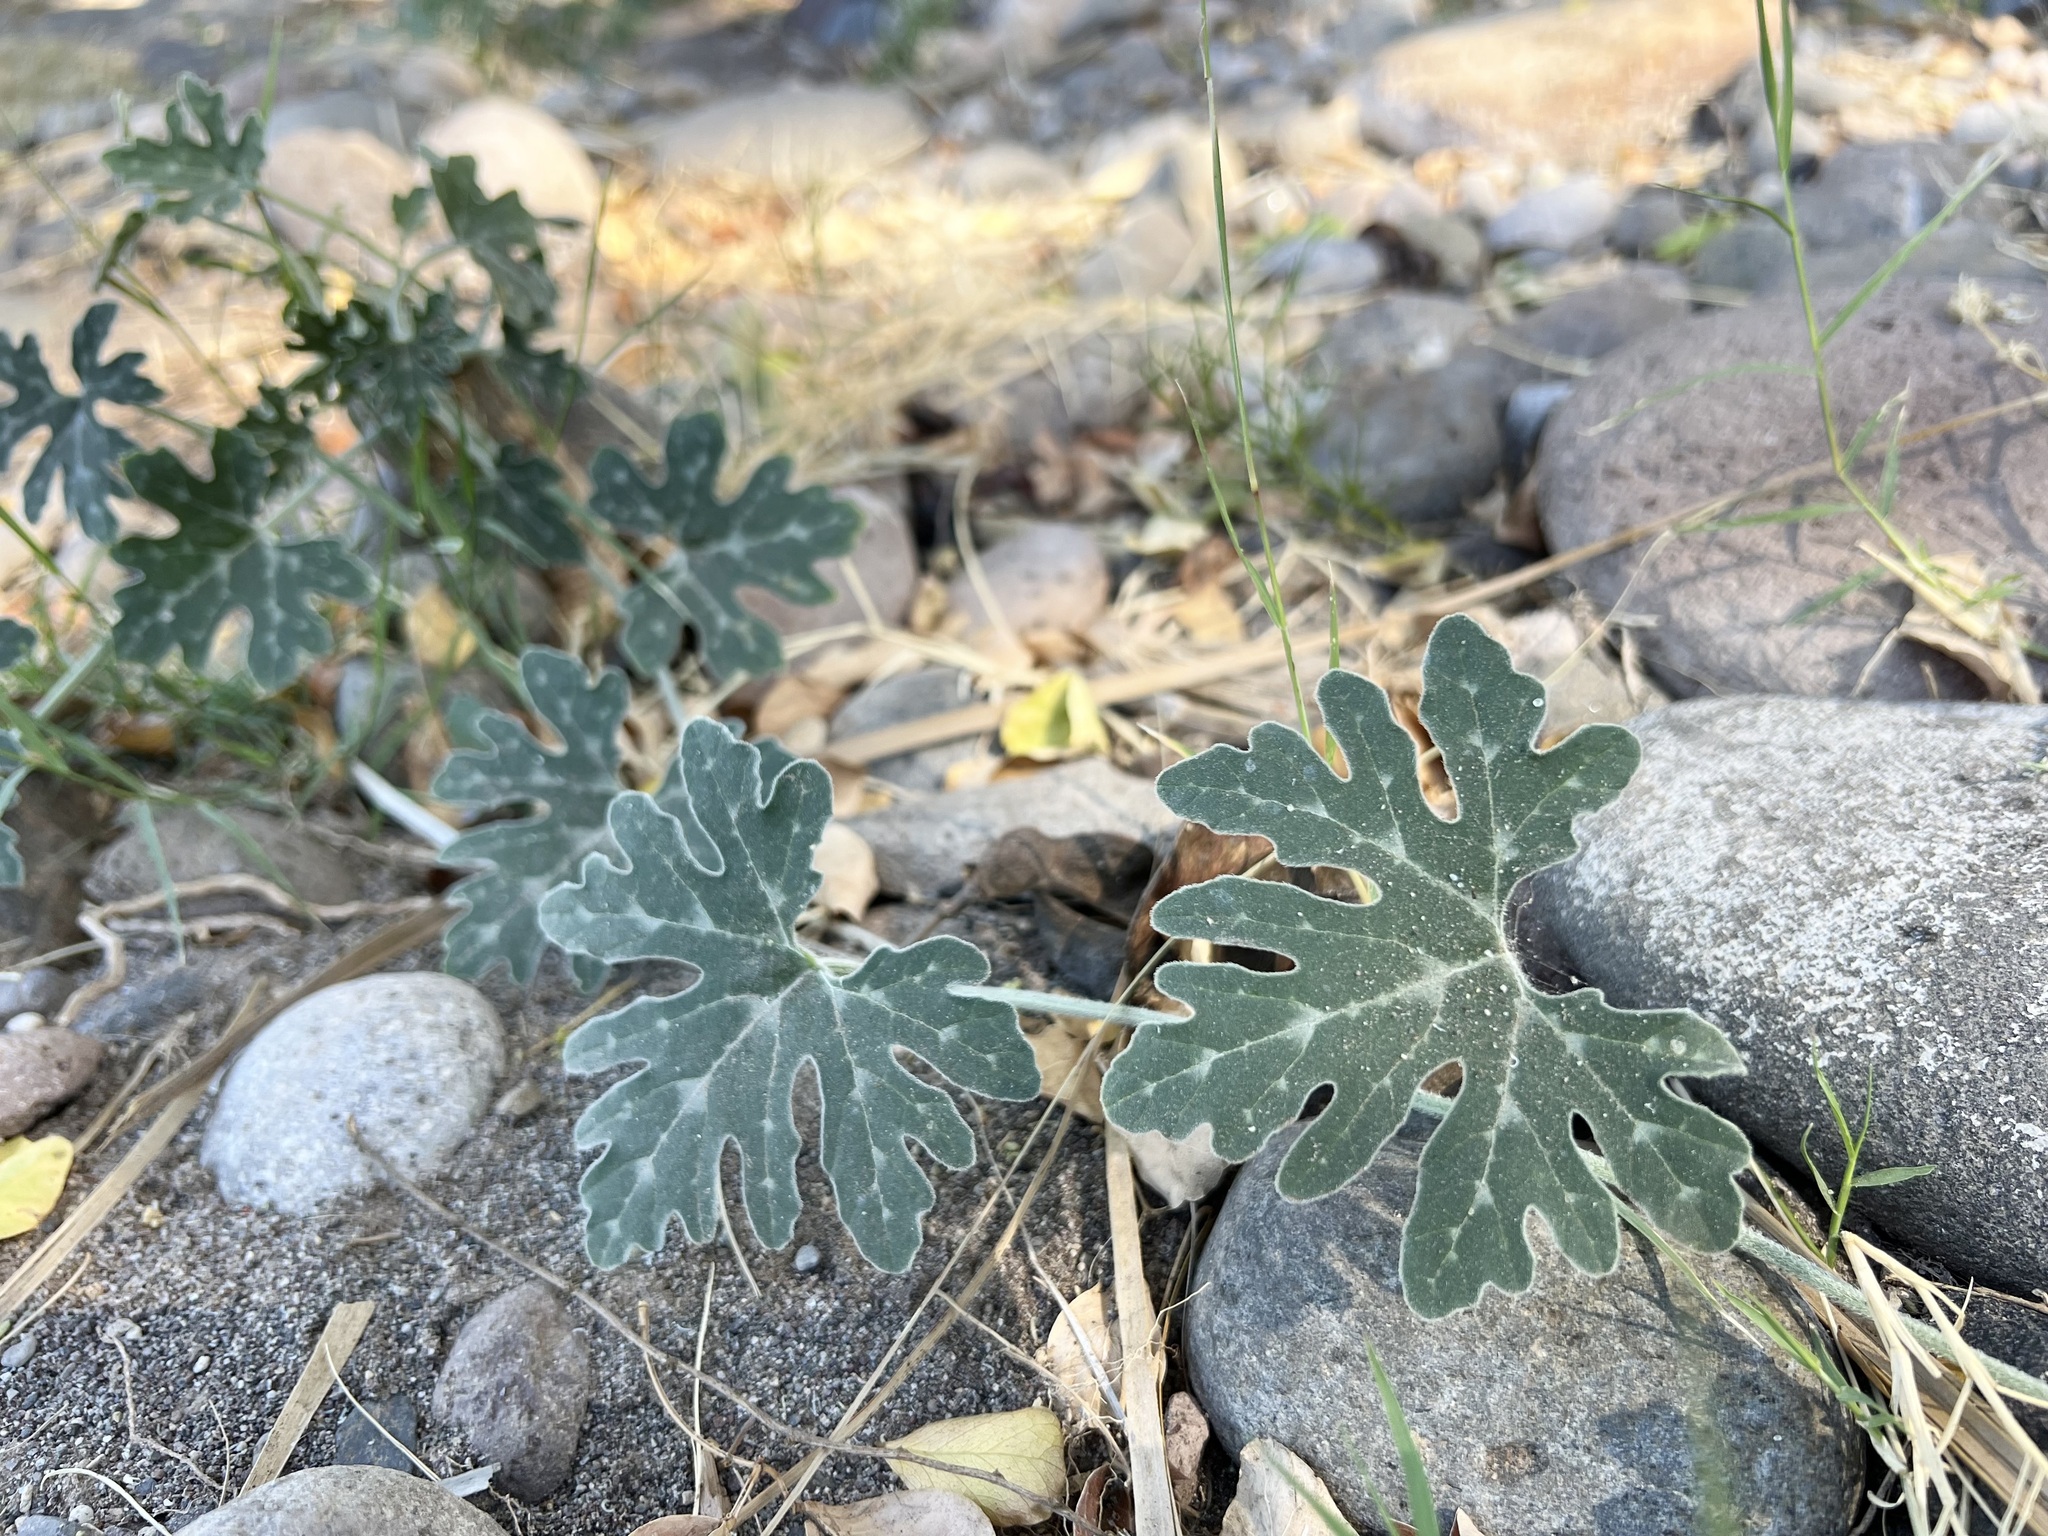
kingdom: Plantae
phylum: Tracheophyta
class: Magnoliopsida
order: Cucurbitales
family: Cucurbitaceae
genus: Cucurbita
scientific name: Cucurbita cordata
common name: Coyote gourd
